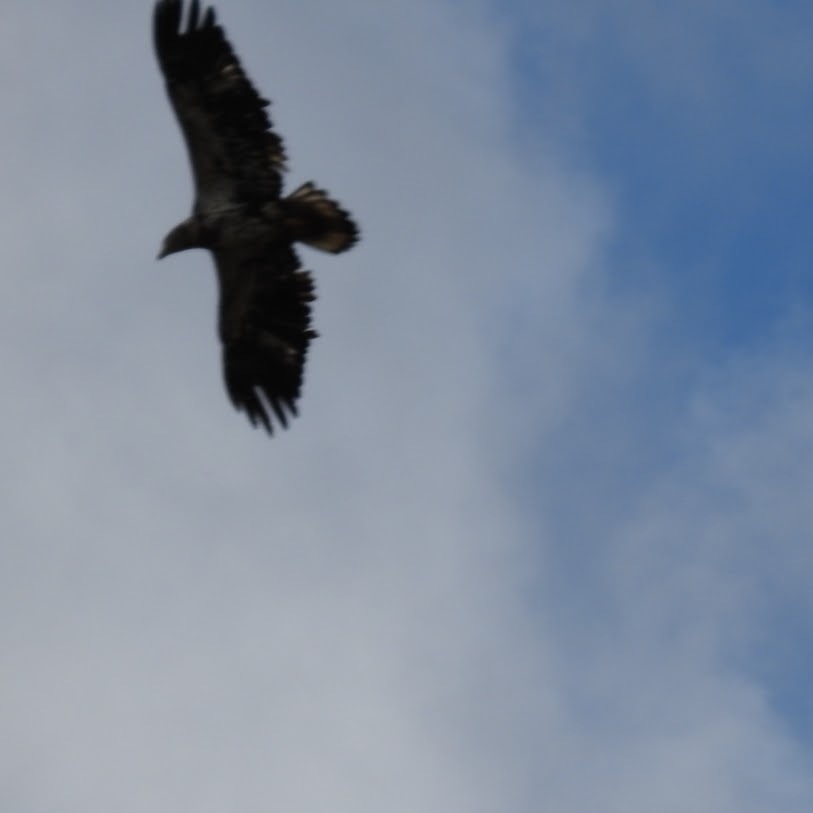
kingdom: Animalia
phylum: Chordata
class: Aves
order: Accipitriformes
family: Accipitridae
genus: Haliaeetus
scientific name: Haliaeetus leucocephalus
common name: Bald eagle
